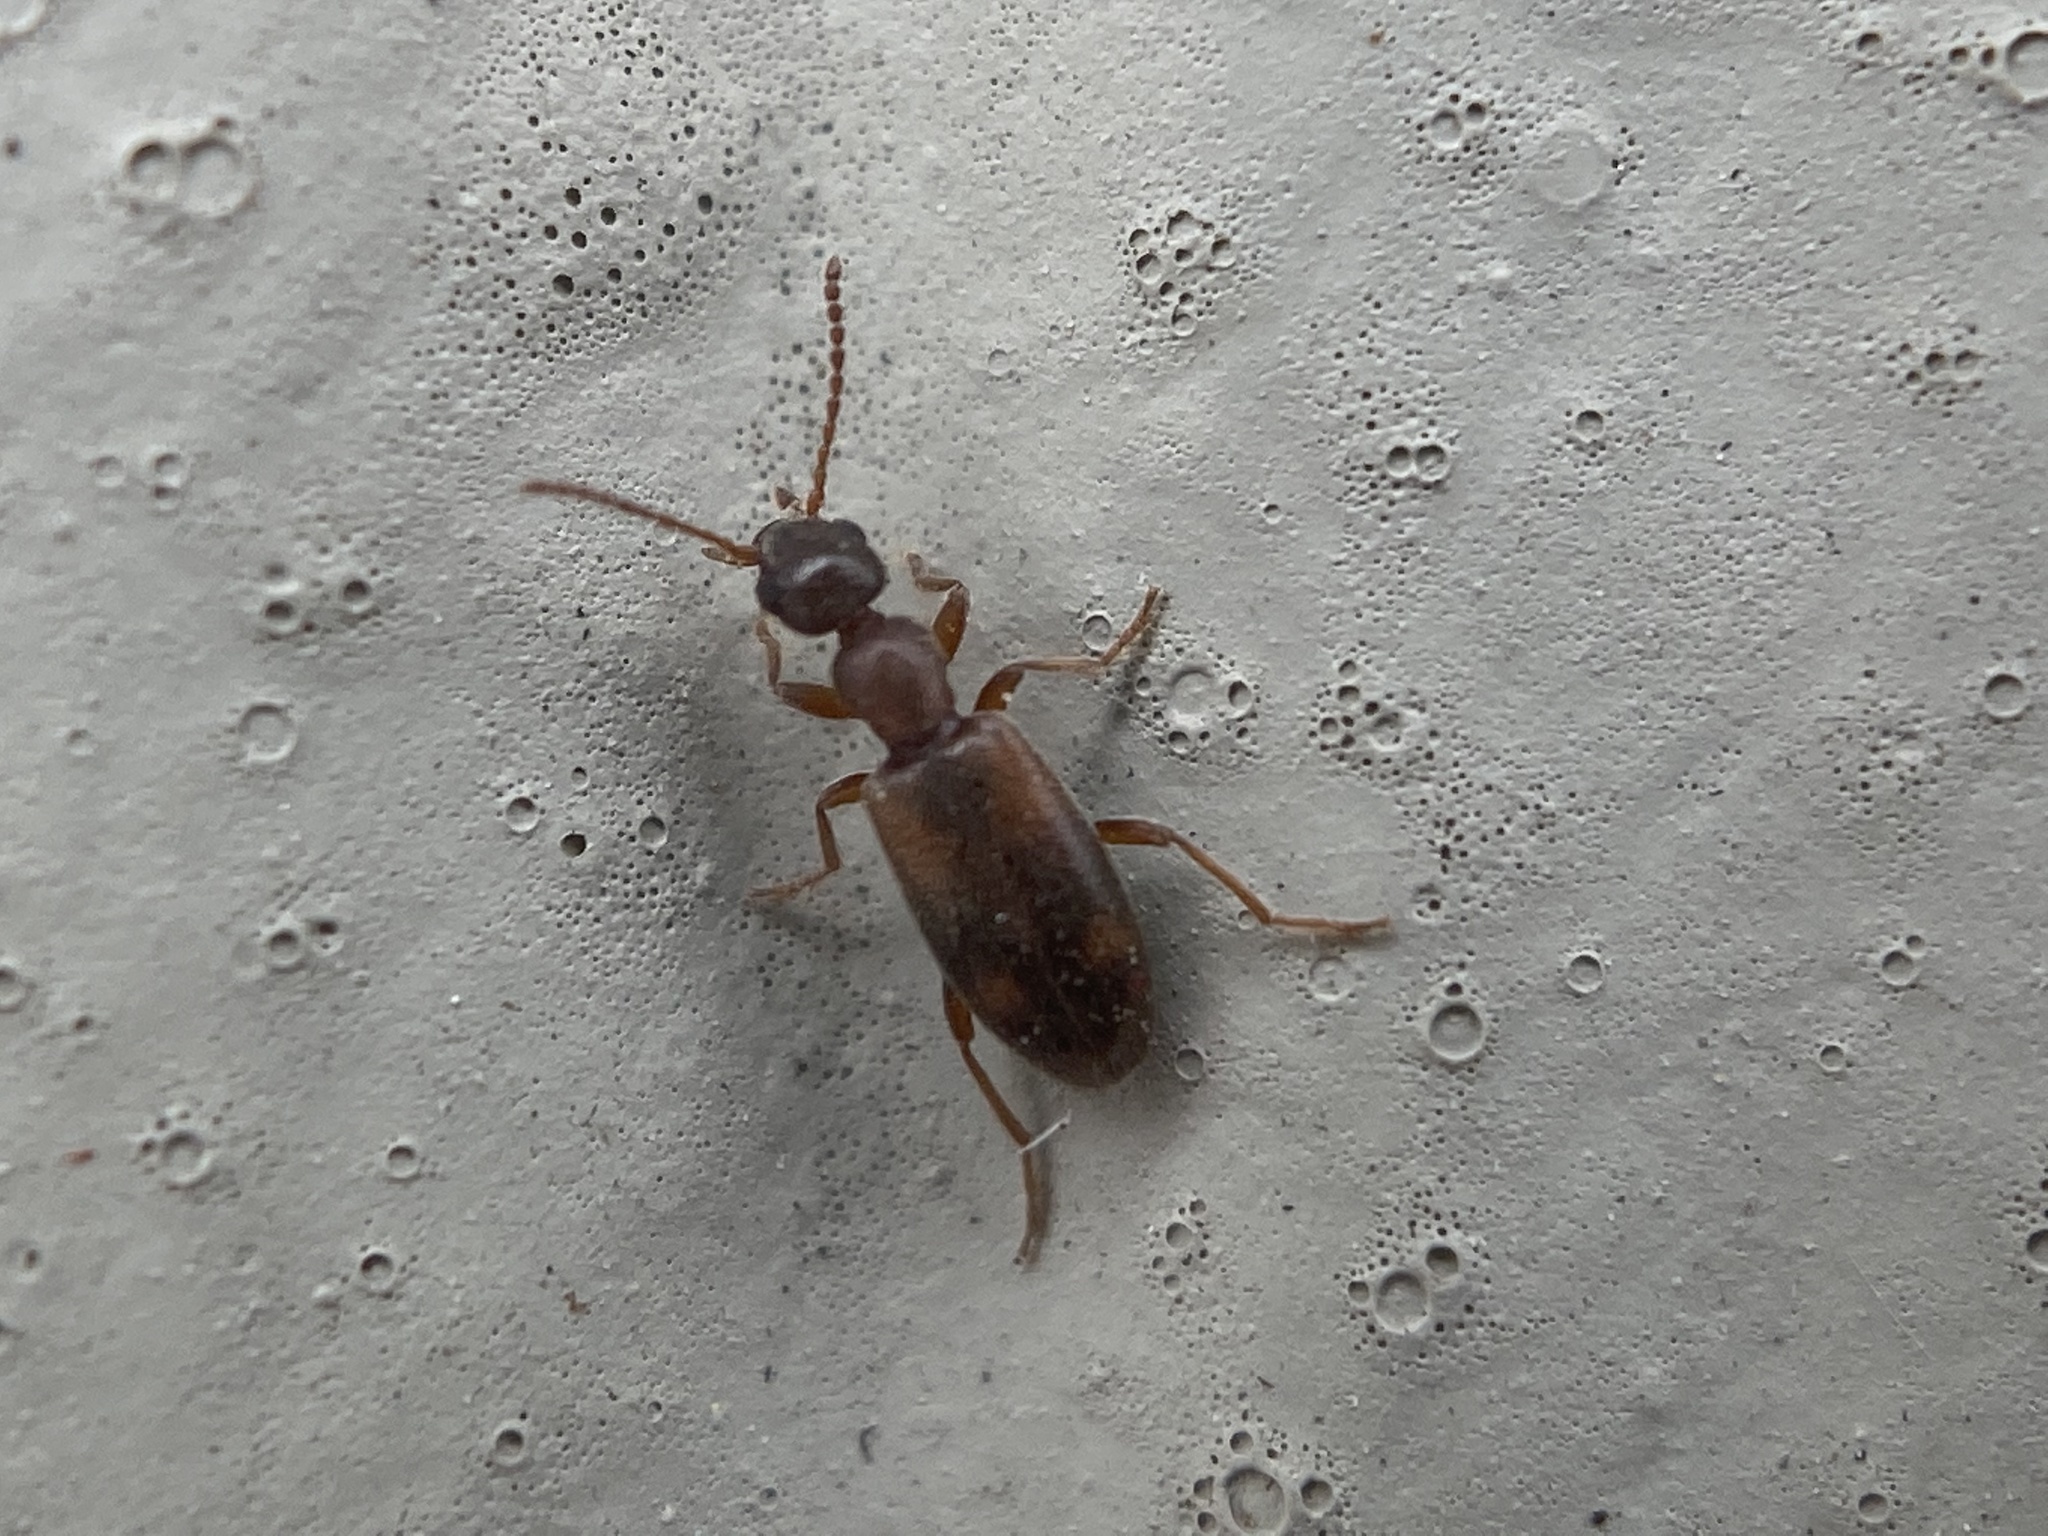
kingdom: Animalia
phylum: Arthropoda
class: Insecta
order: Coleoptera
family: Anthicidae
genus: Anthicus
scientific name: Anthicus cervinus
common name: Cloudy flower beetle
